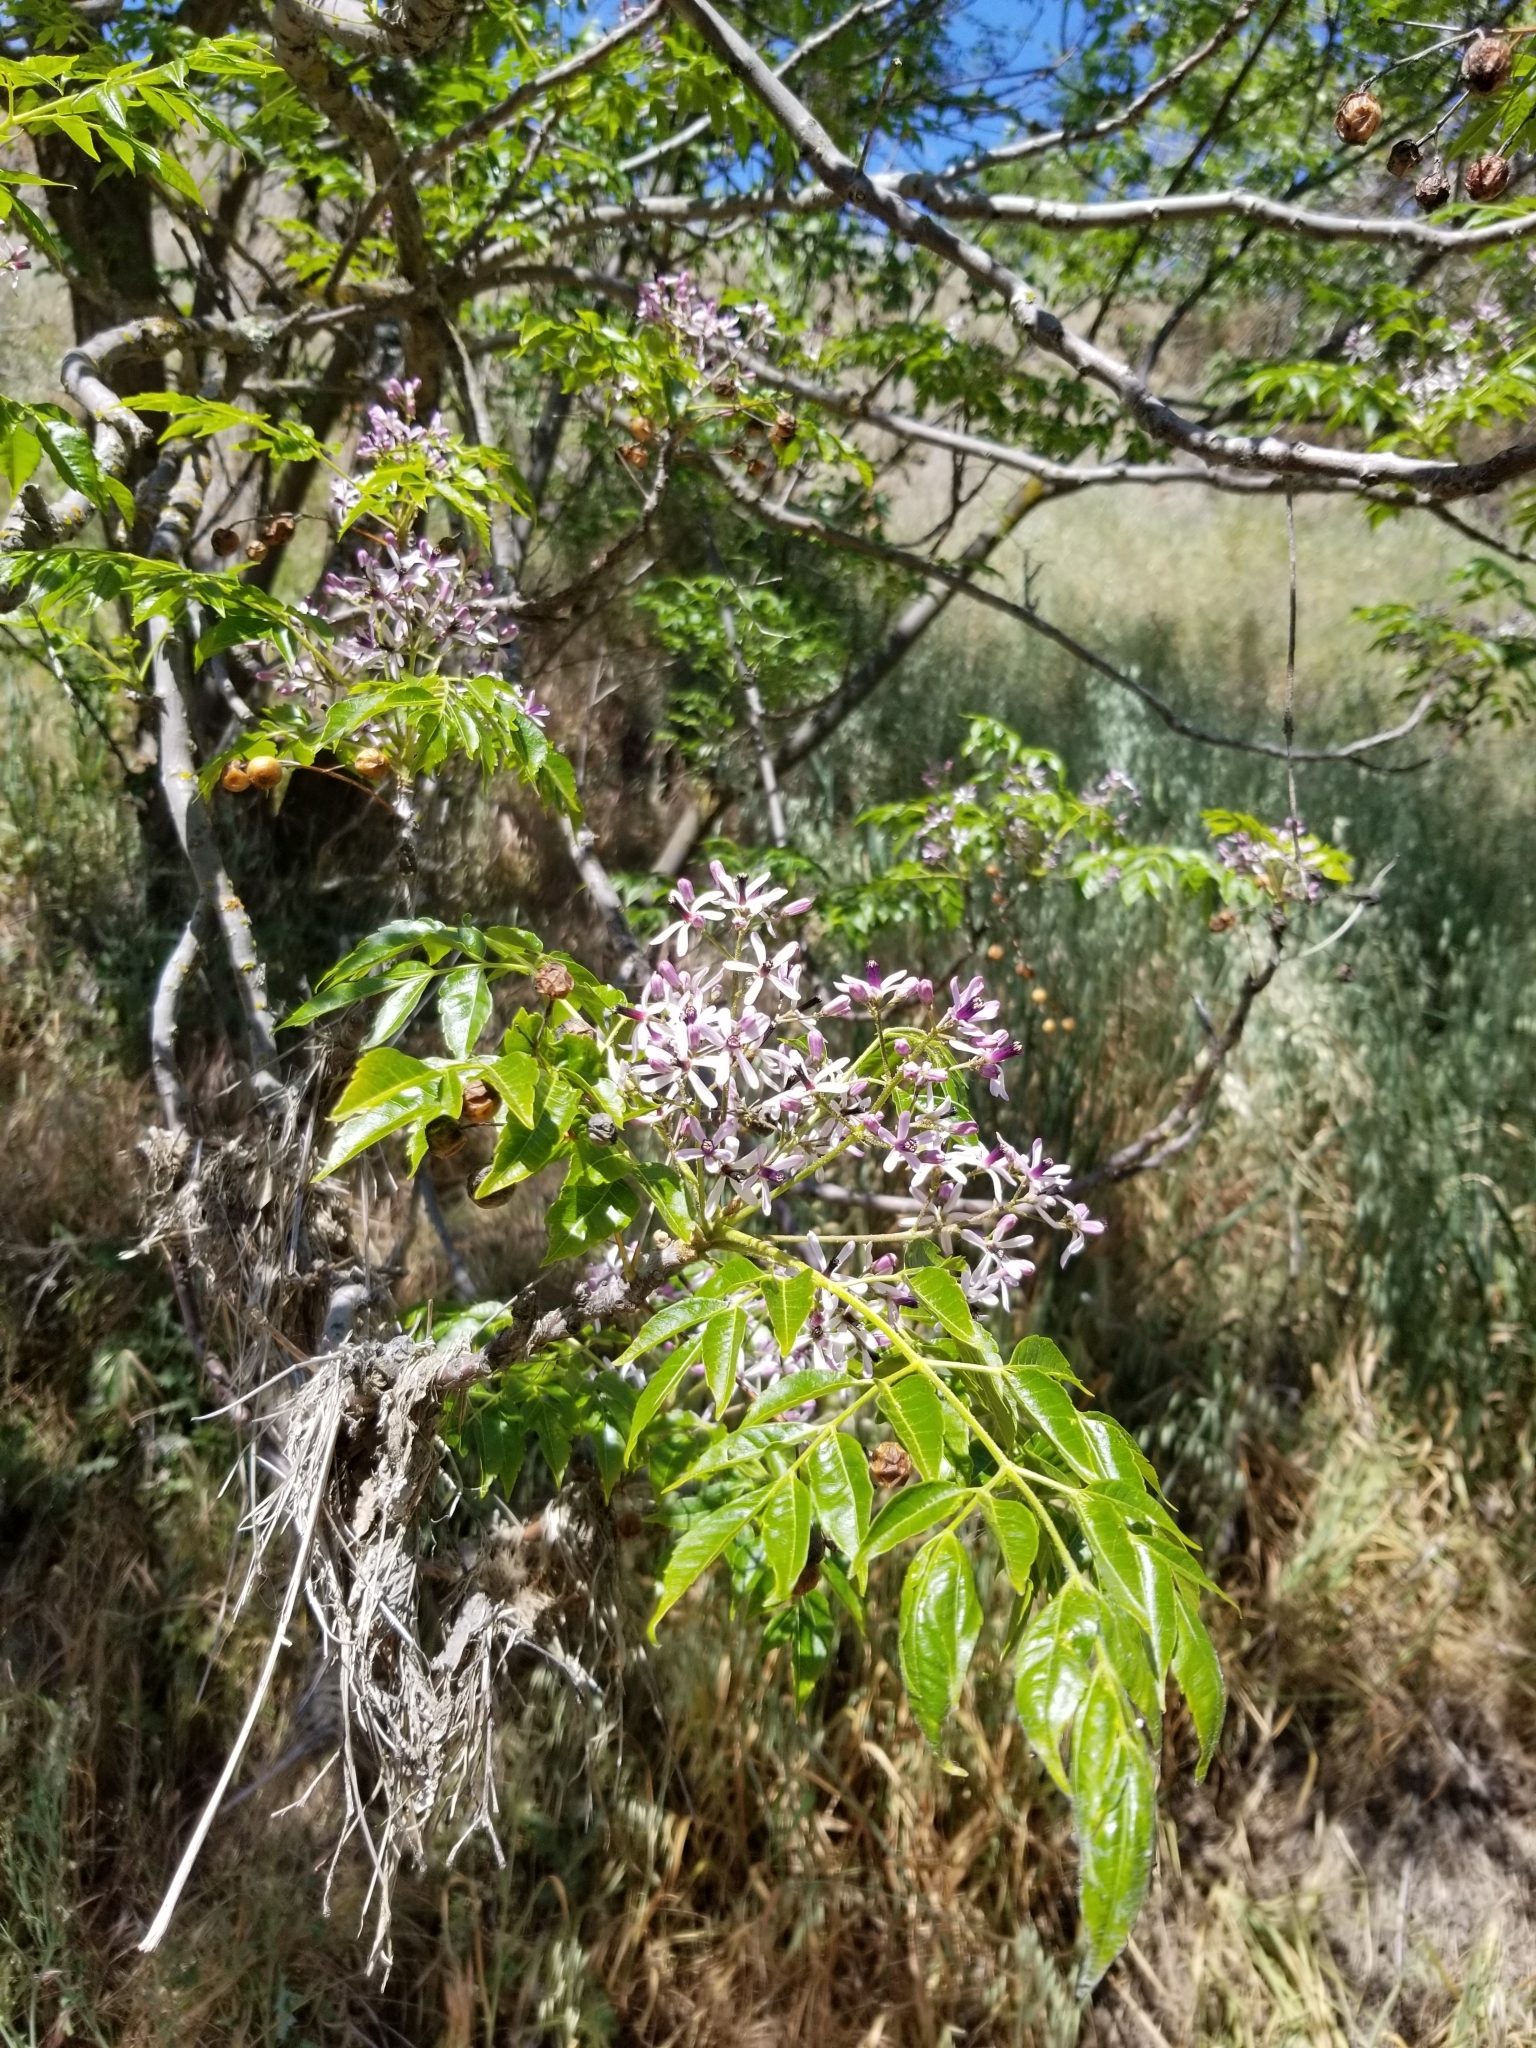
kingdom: Plantae
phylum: Tracheophyta
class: Magnoliopsida
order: Sapindales
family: Meliaceae
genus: Melia
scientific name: Melia azedarach
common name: Chinaberrytree
